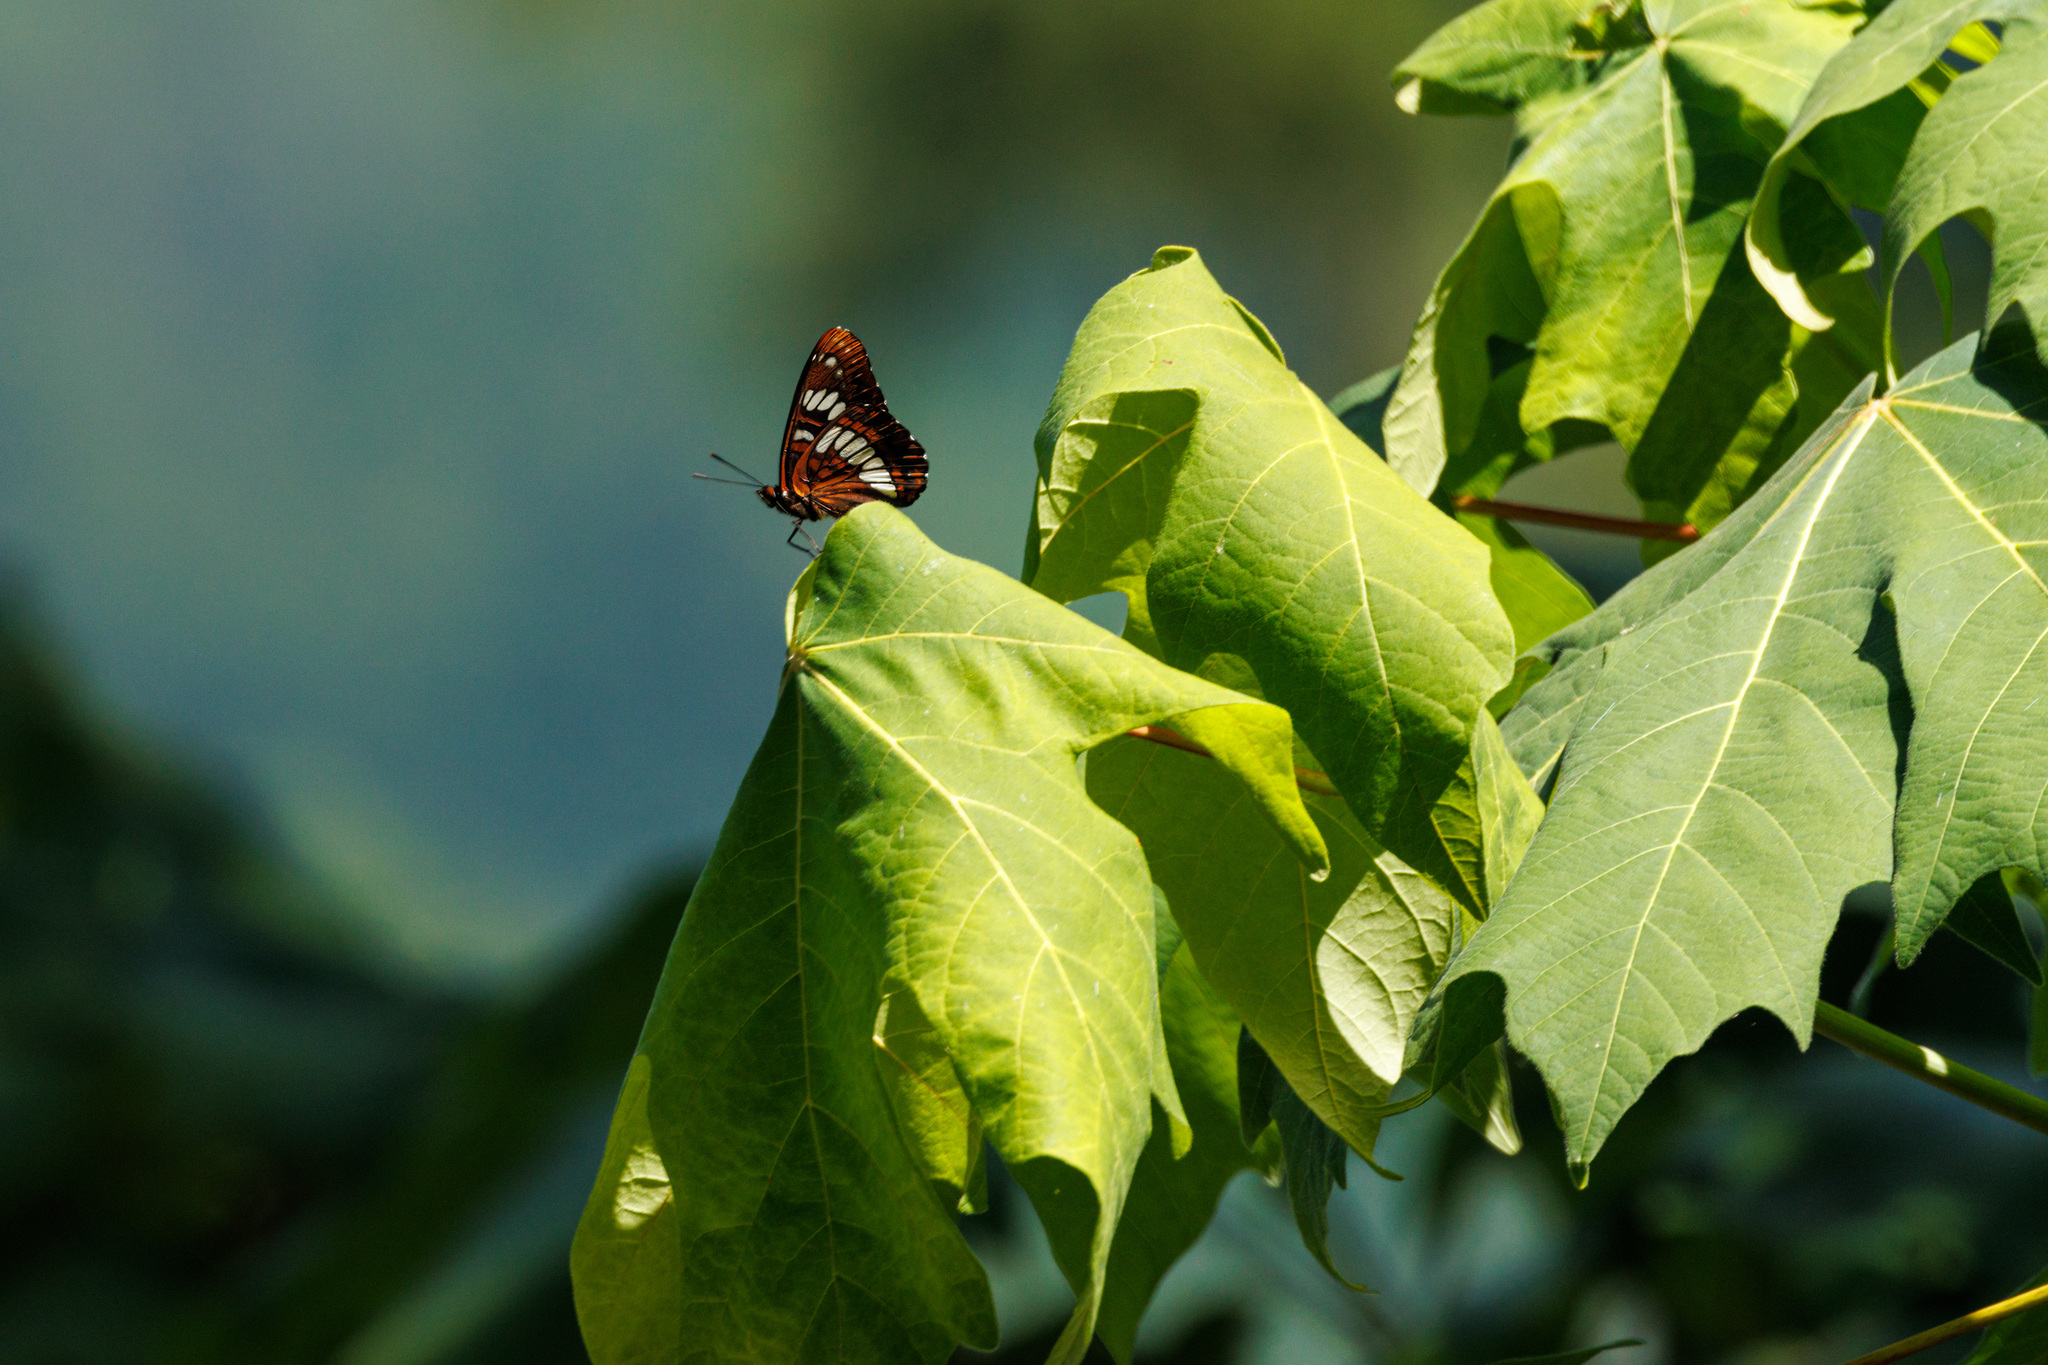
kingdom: Animalia
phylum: Arthropoda
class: Insecta
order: Lepidoptera
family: Nymphalidae
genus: Limenitis
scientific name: Limenitis lorquini
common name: Lorquin's admiral
